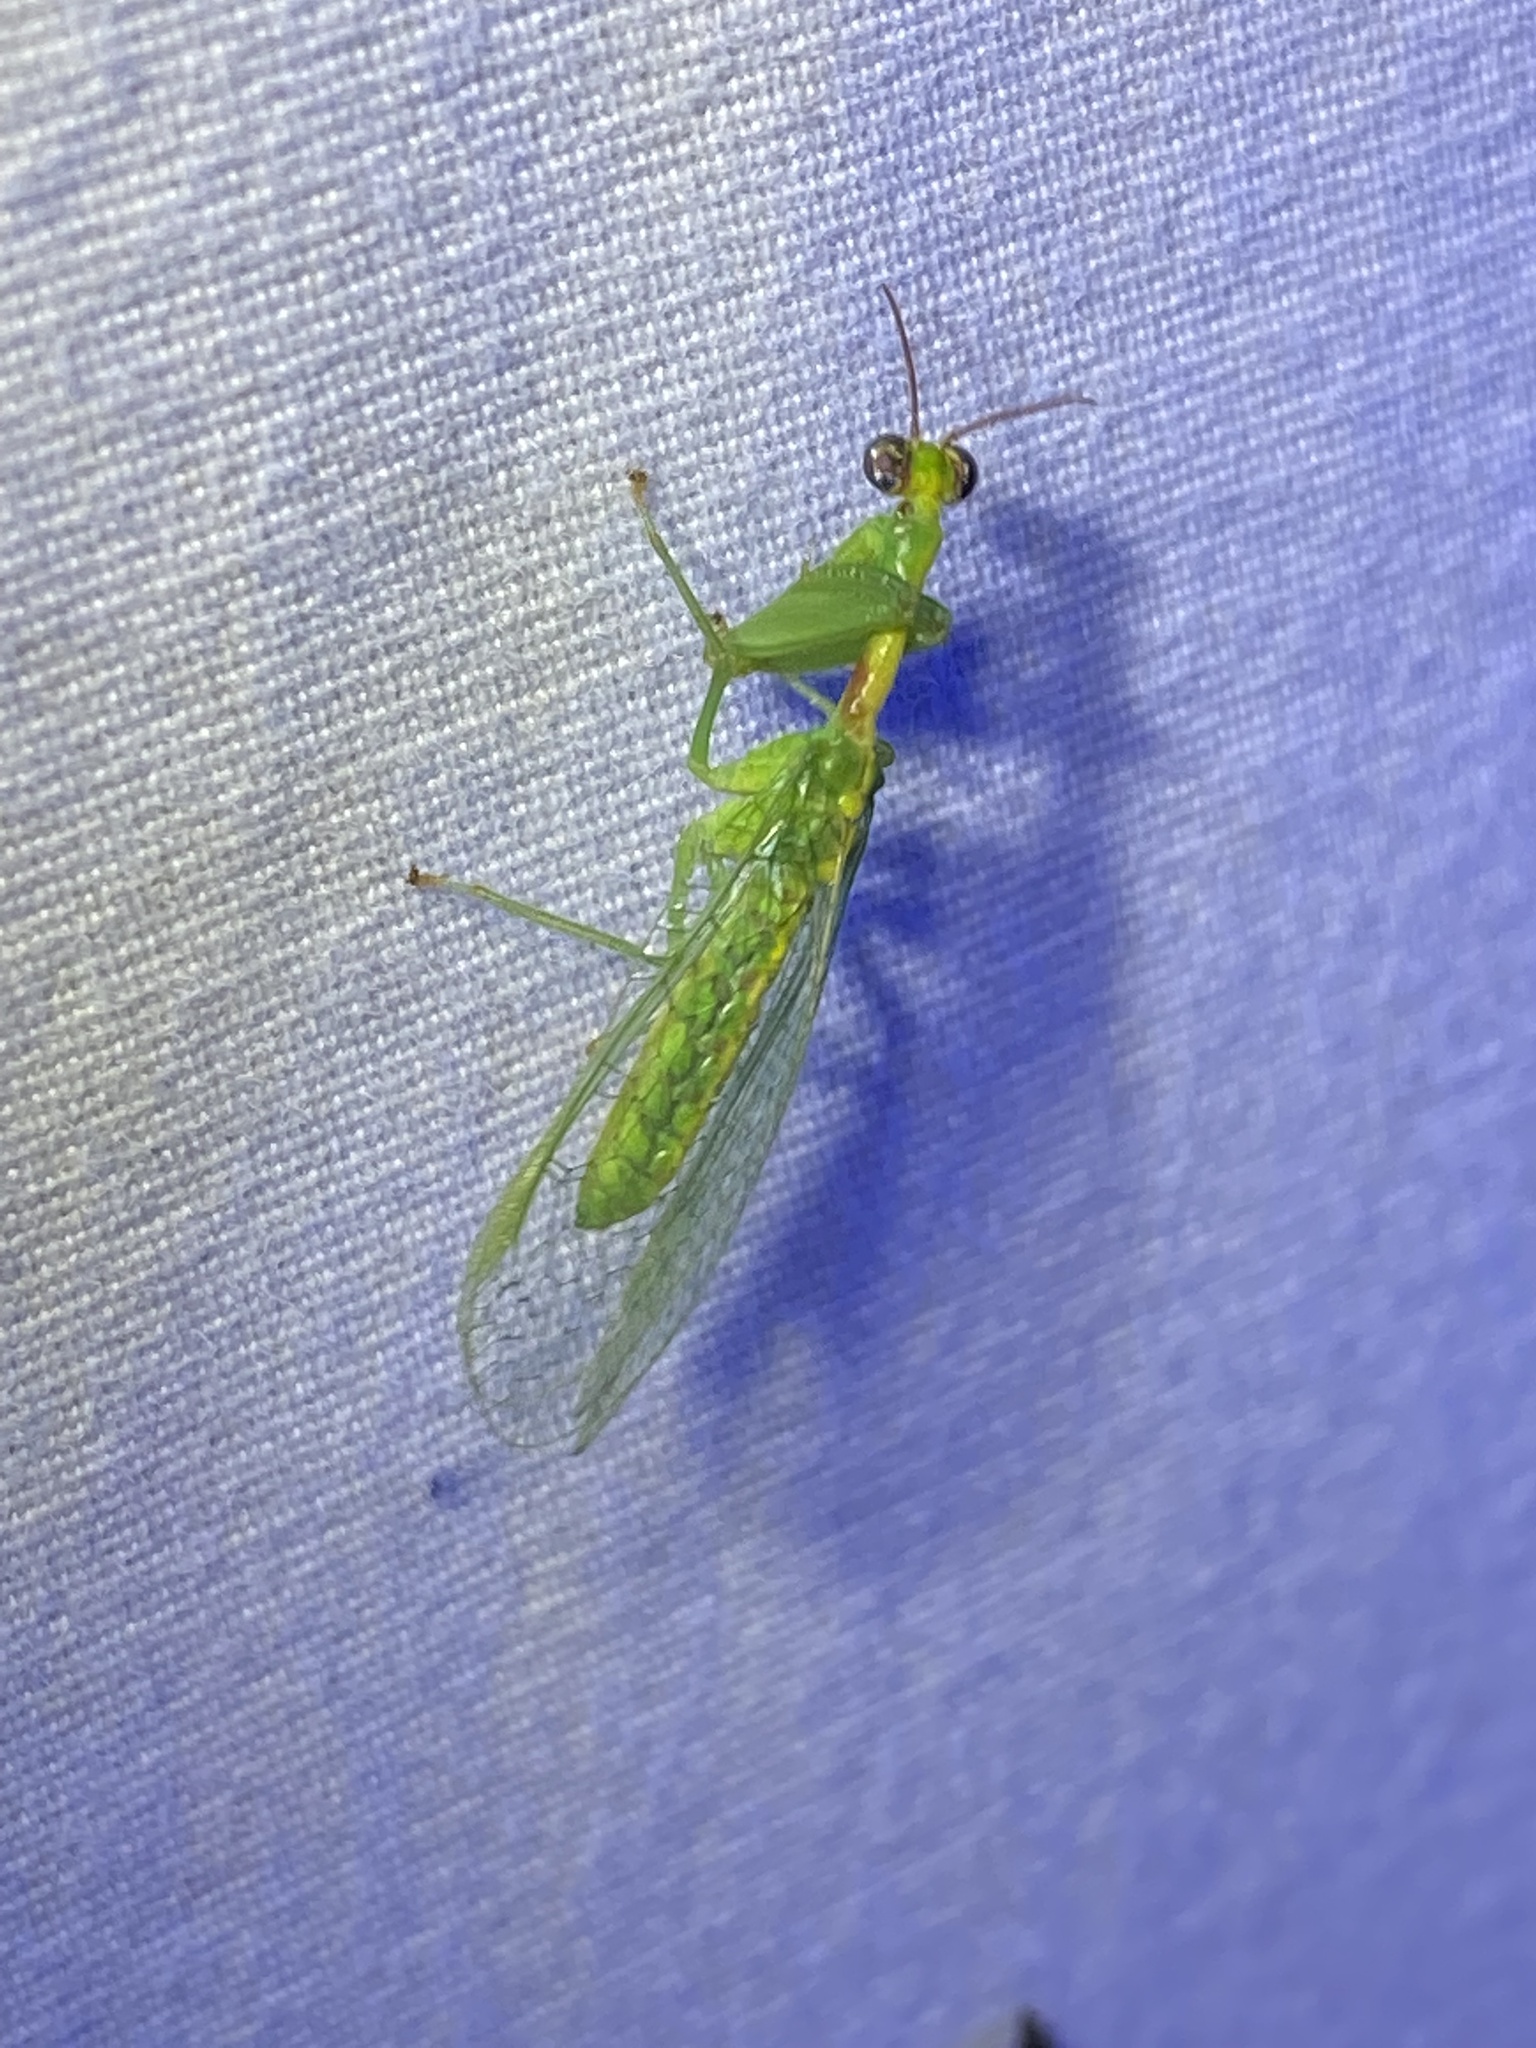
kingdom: Animalia
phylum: Arthropoda
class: Insecta
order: Neuroptera
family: Mantispidae
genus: Zeugomantispa
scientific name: Zeugomantispa minuta
